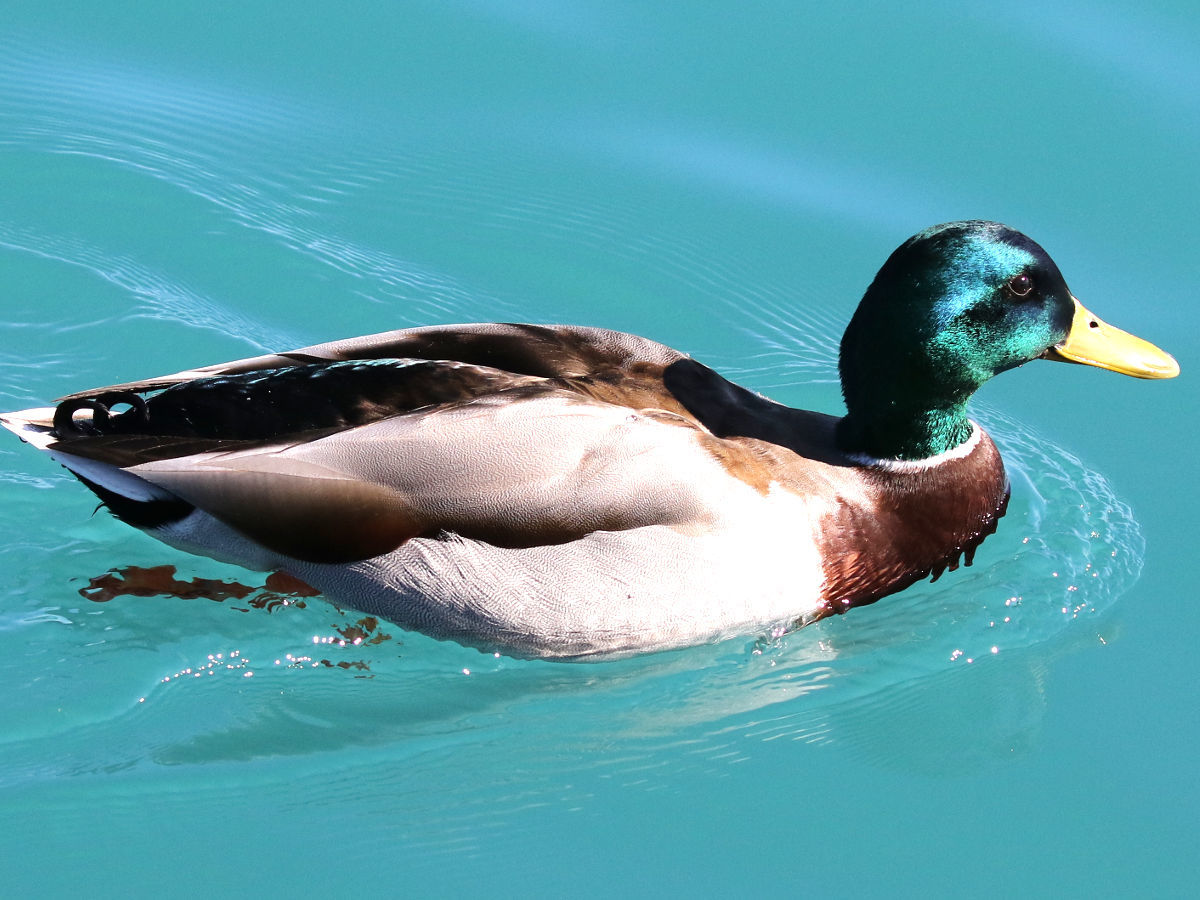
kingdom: Animalia
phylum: Chordata
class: Aves
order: Anseriformes
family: Anatidae
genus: Anas
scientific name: Anas platyrhynchos
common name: Mallard
